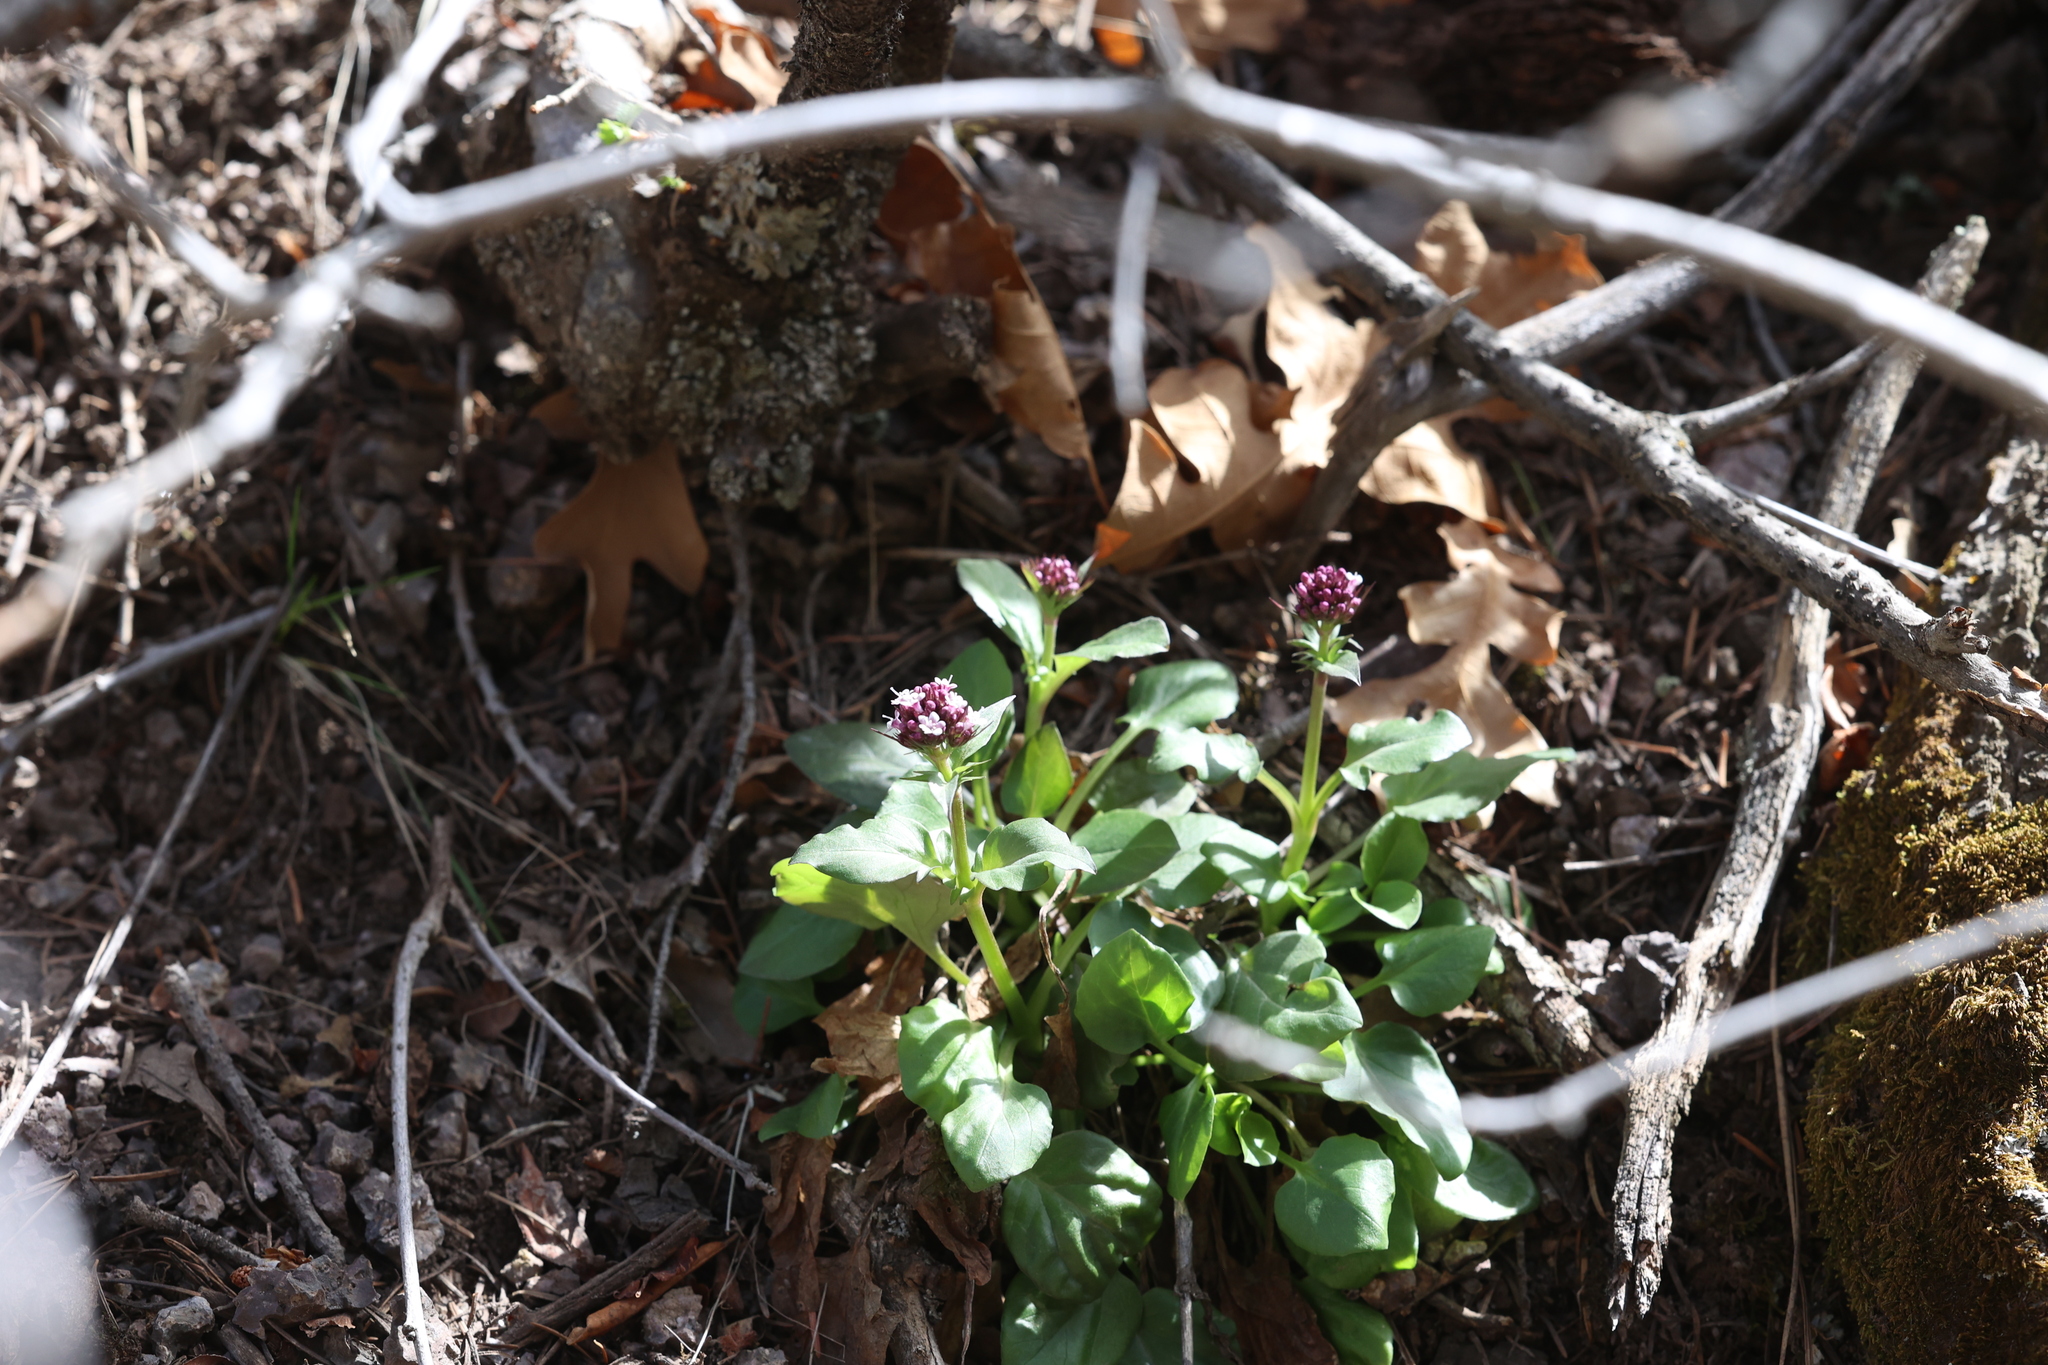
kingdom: Plantae
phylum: Tracheophyta
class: Magnoliopsida
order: Dipsacales
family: Caprifoliaceae
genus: Valeriana
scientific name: Valeriana arizonica
